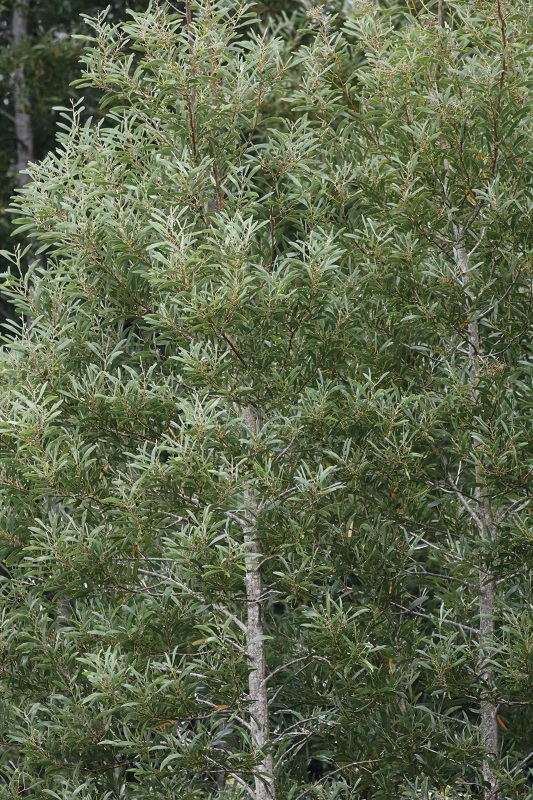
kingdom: Plantae
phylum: Tracheophyta
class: Magnoliopsida
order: Fabales
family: Fabaceae
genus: Acacia
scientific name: Acacia melanoxylon
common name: Blackwood
